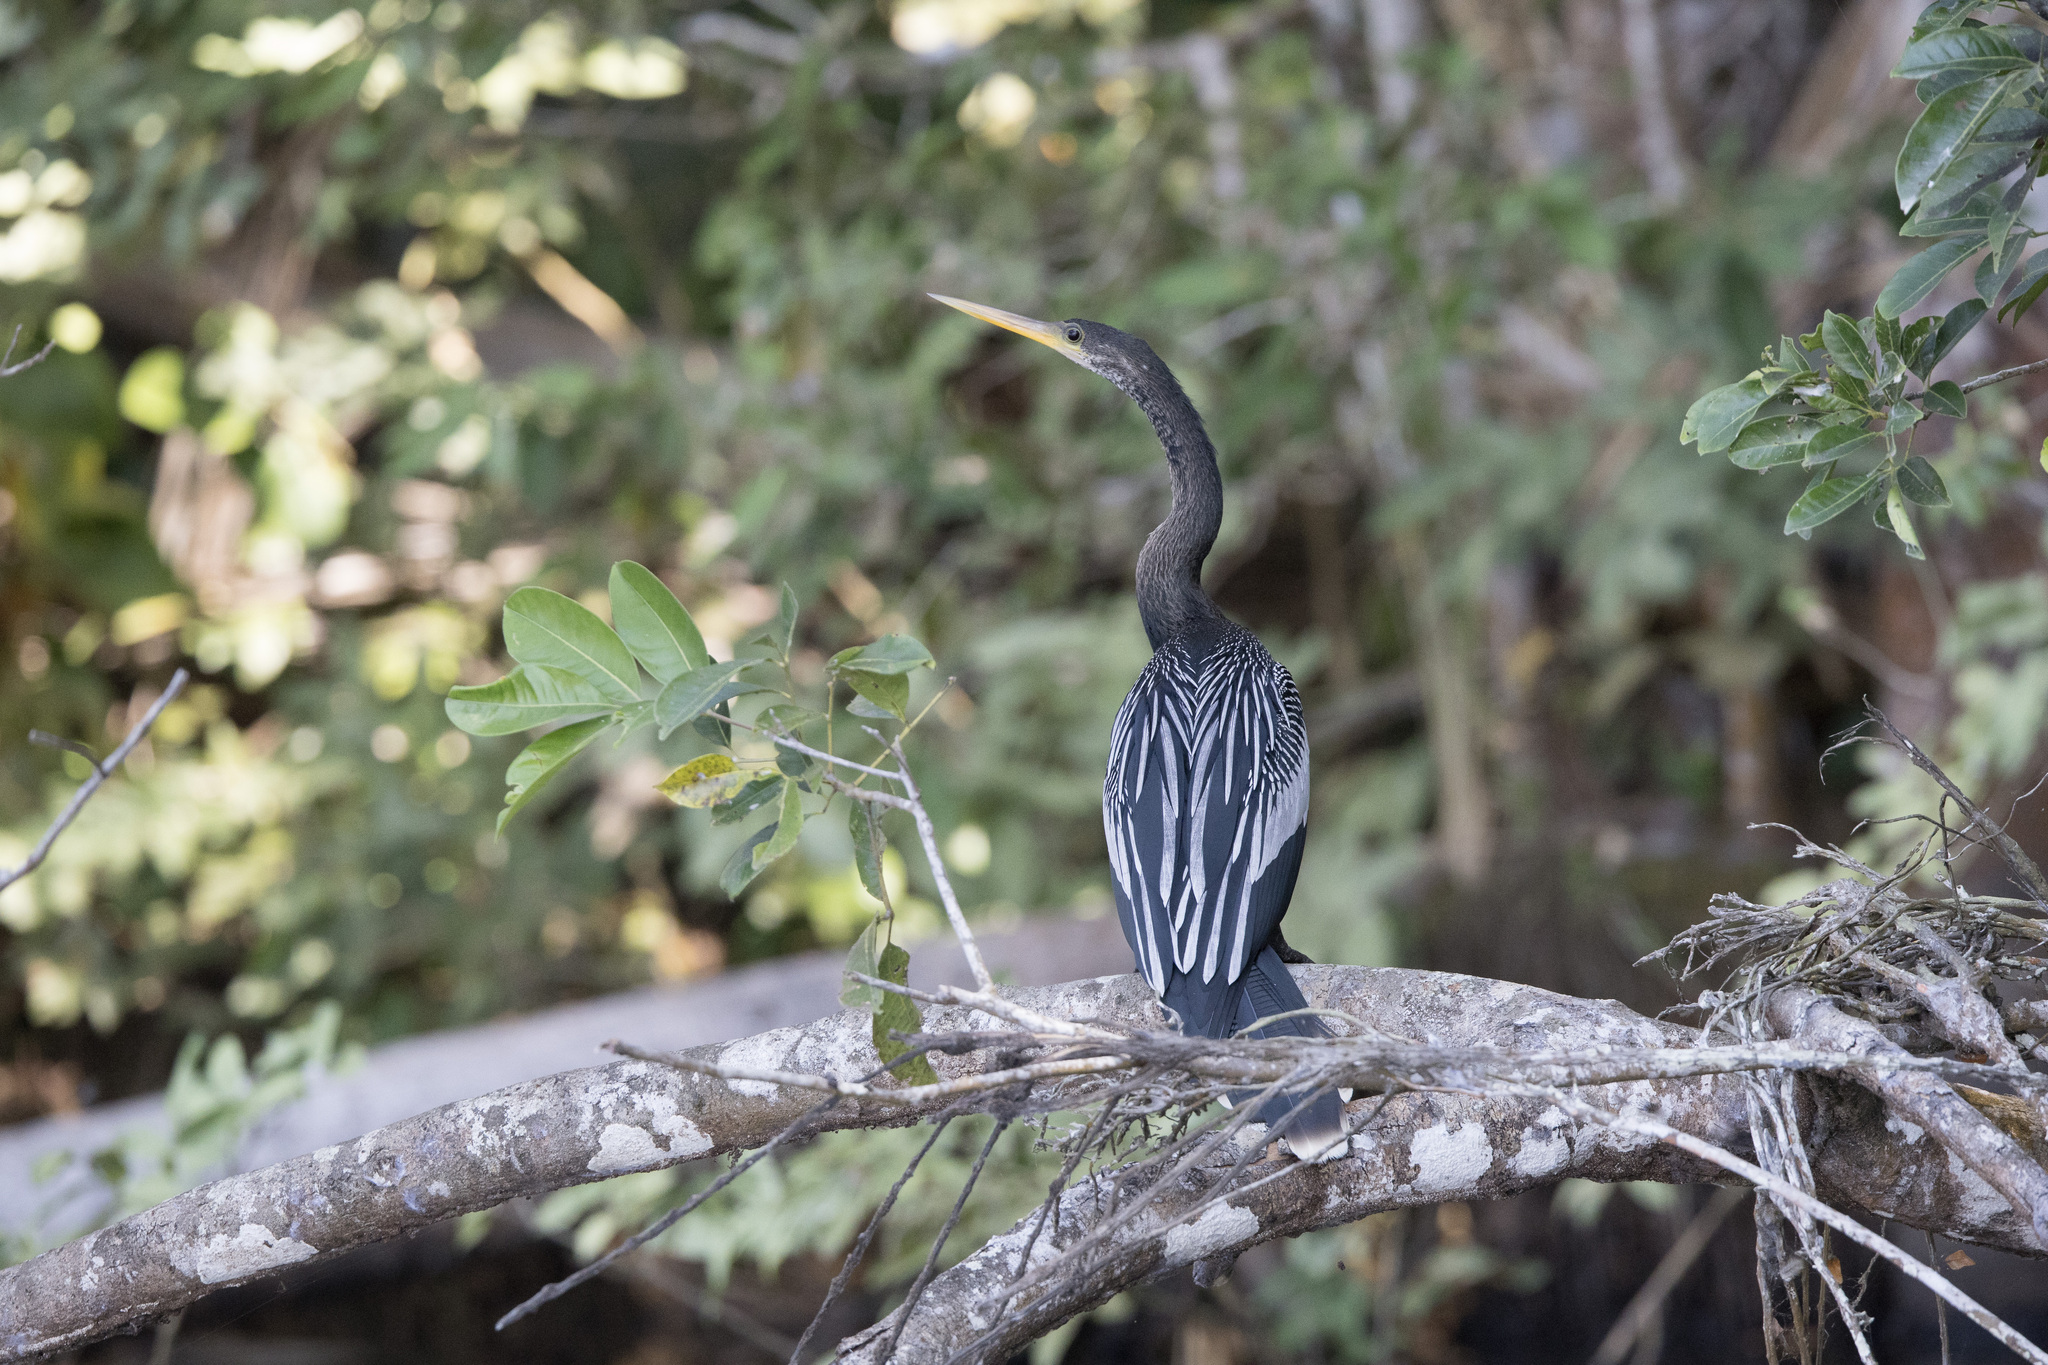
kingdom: Animalia
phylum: Chordata
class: Aves
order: Suliformes
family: Anhingidae
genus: Anhinga
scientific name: Anhinga anhinga
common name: Anhinga
